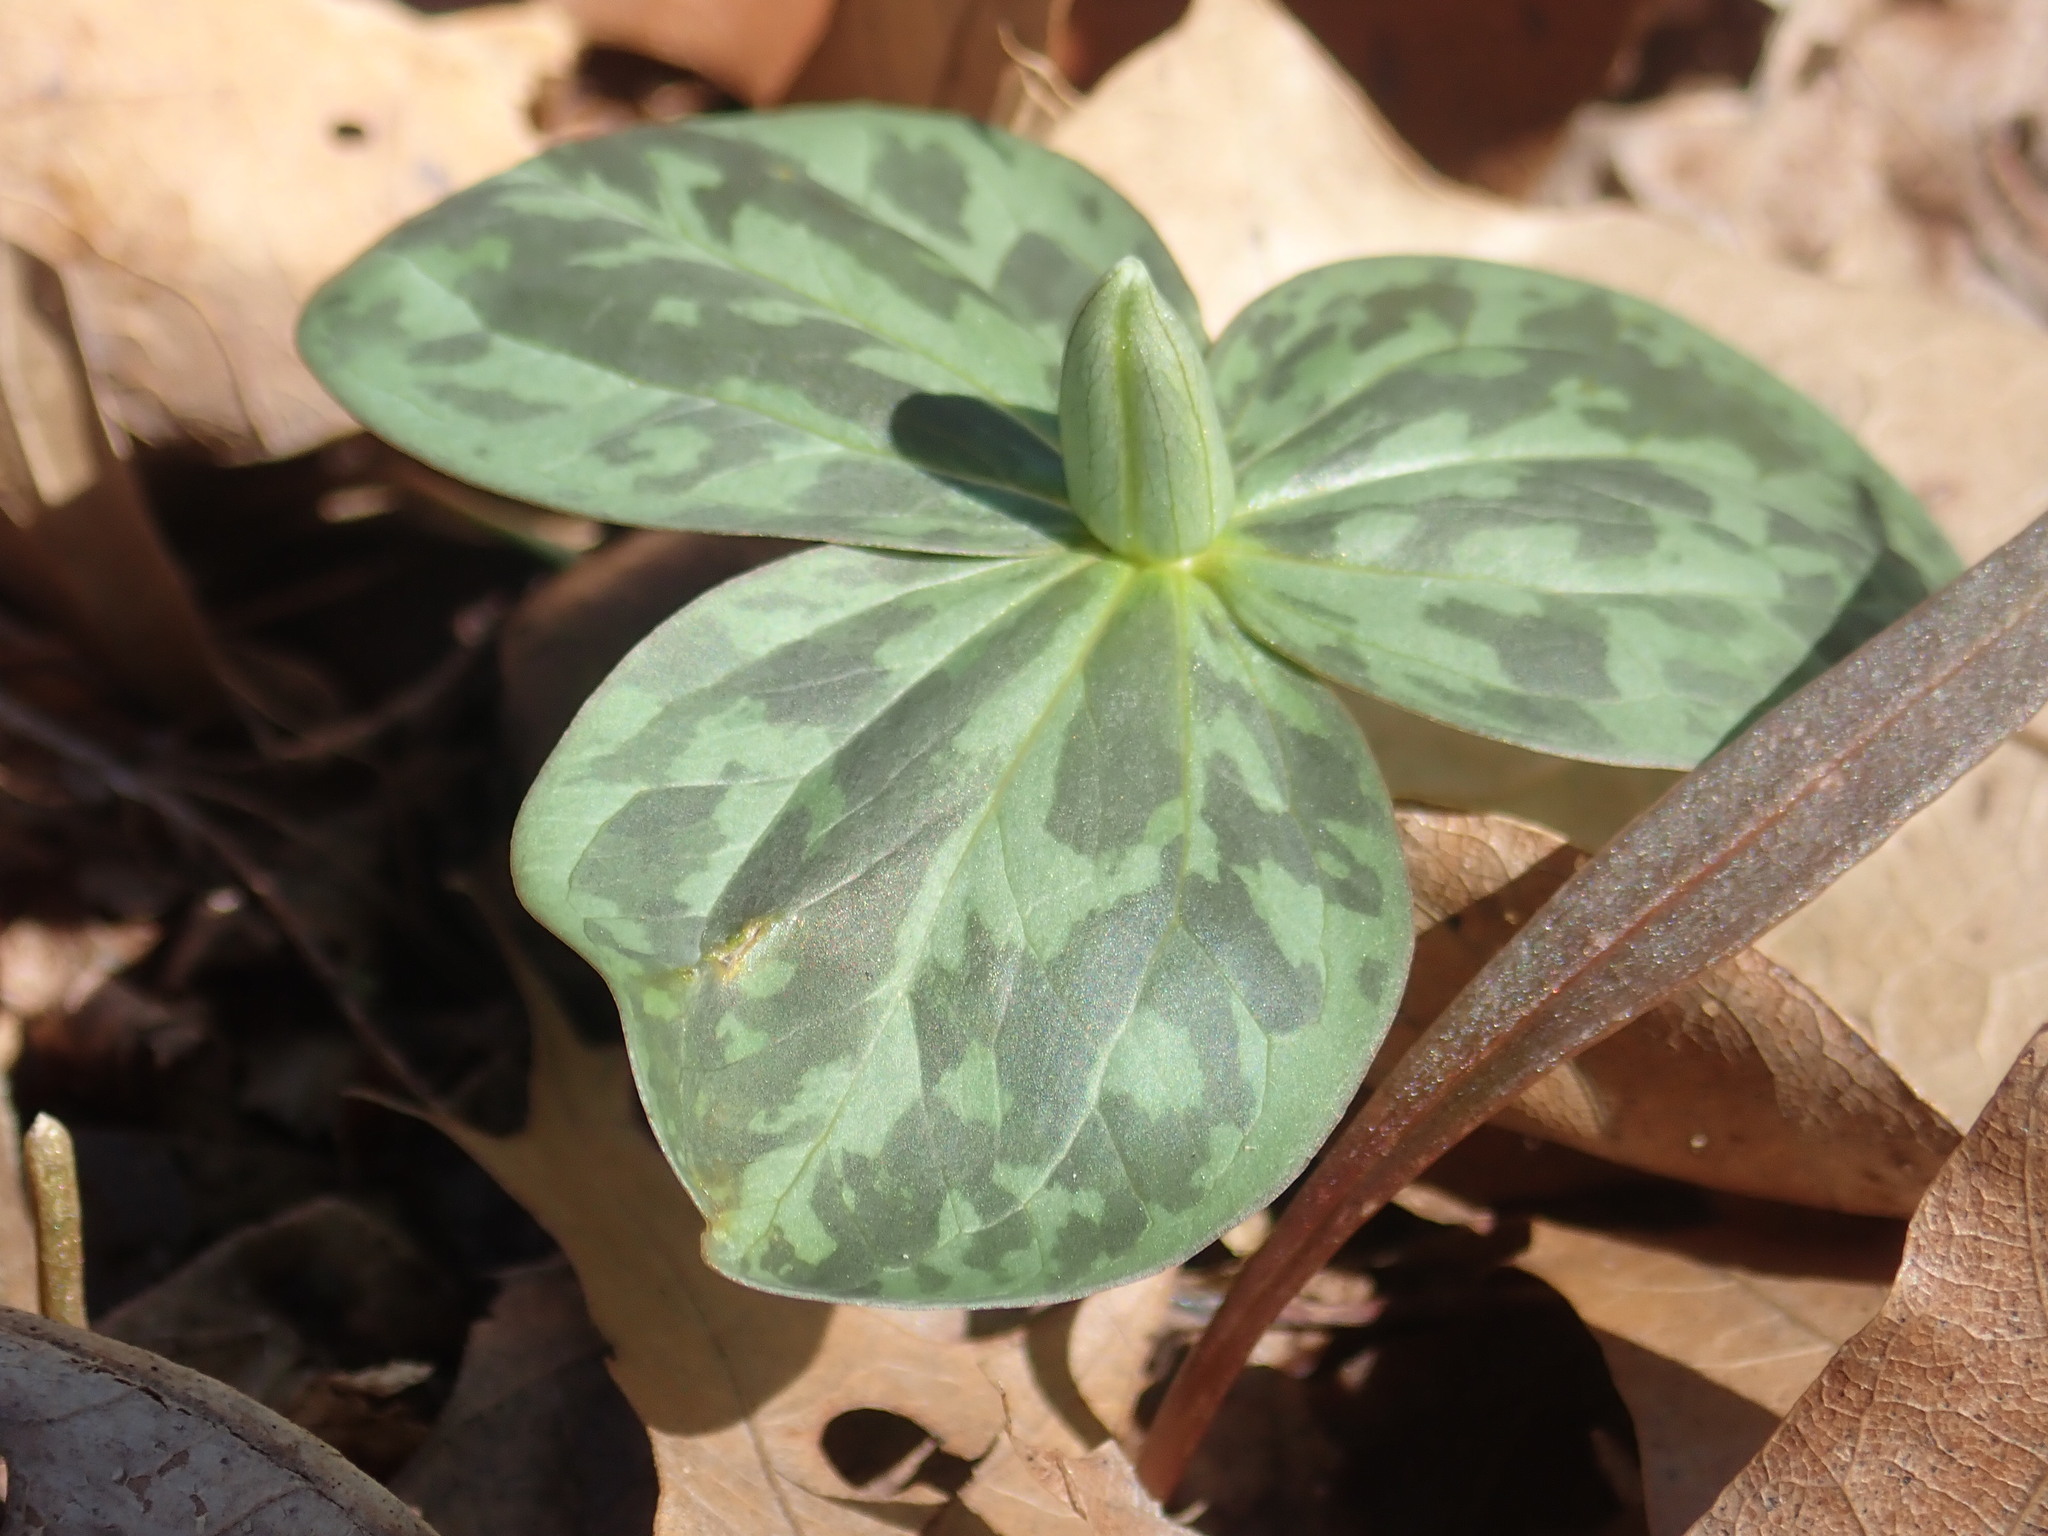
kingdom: Plantae
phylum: Tracheophyta
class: Liliopsida
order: Liliales
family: Melanthiaceae
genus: Trillium
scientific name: Trillium sessile
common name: Sessile trillium
